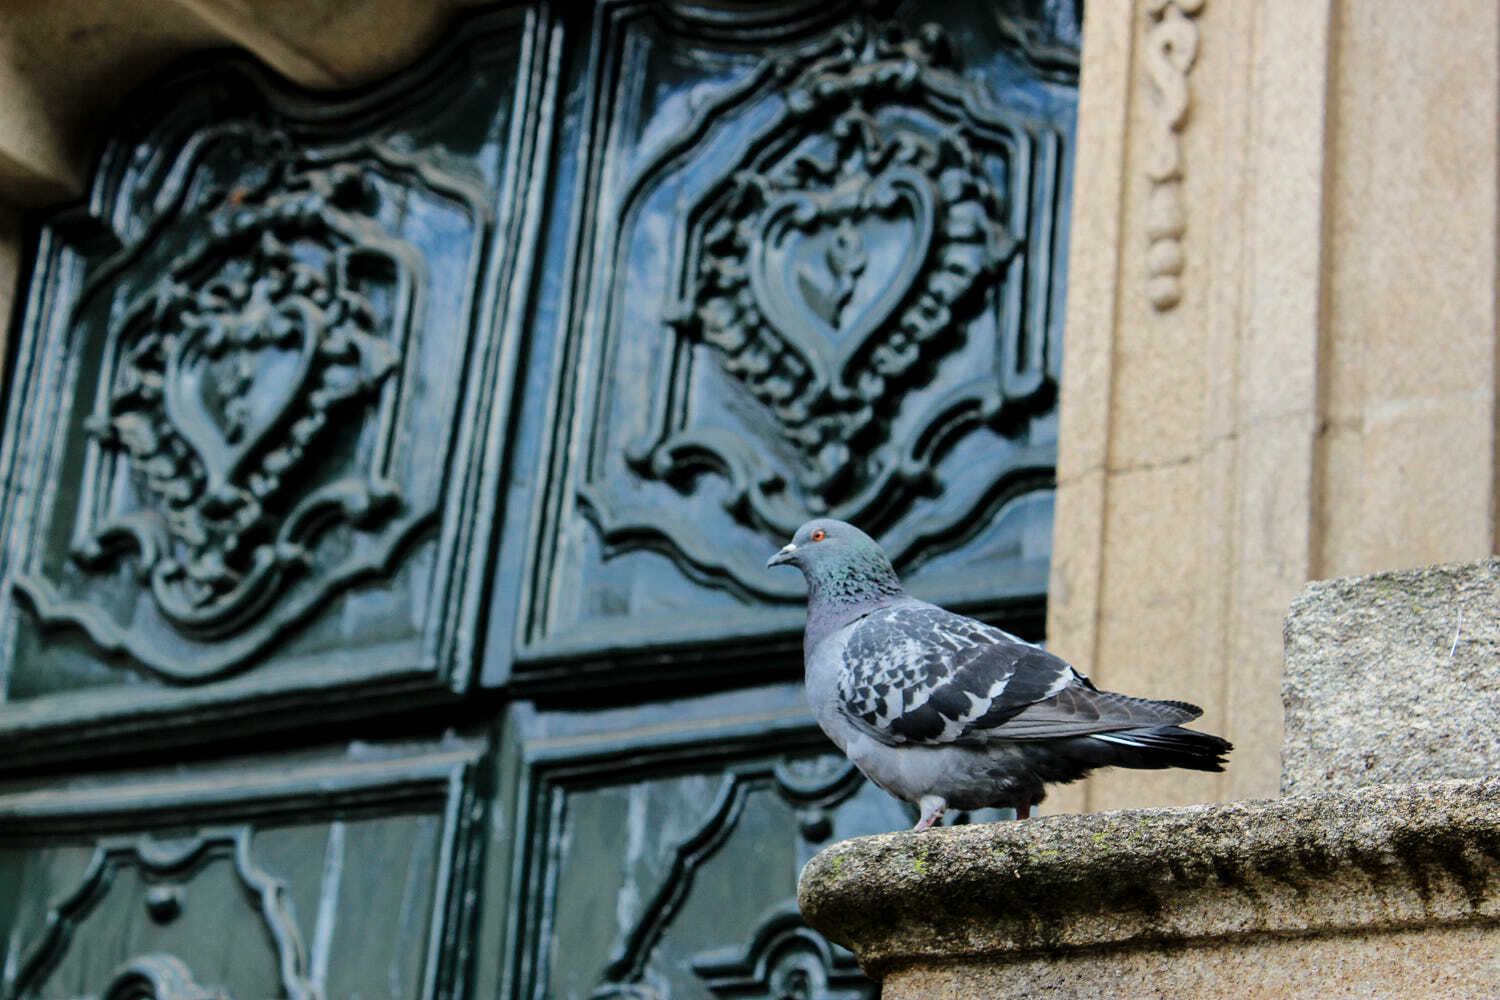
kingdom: Animalia
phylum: Chordata
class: Aves
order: Columbiformes
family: Columbidae
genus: Columba
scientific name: Columba livia
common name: Rock pigeon
